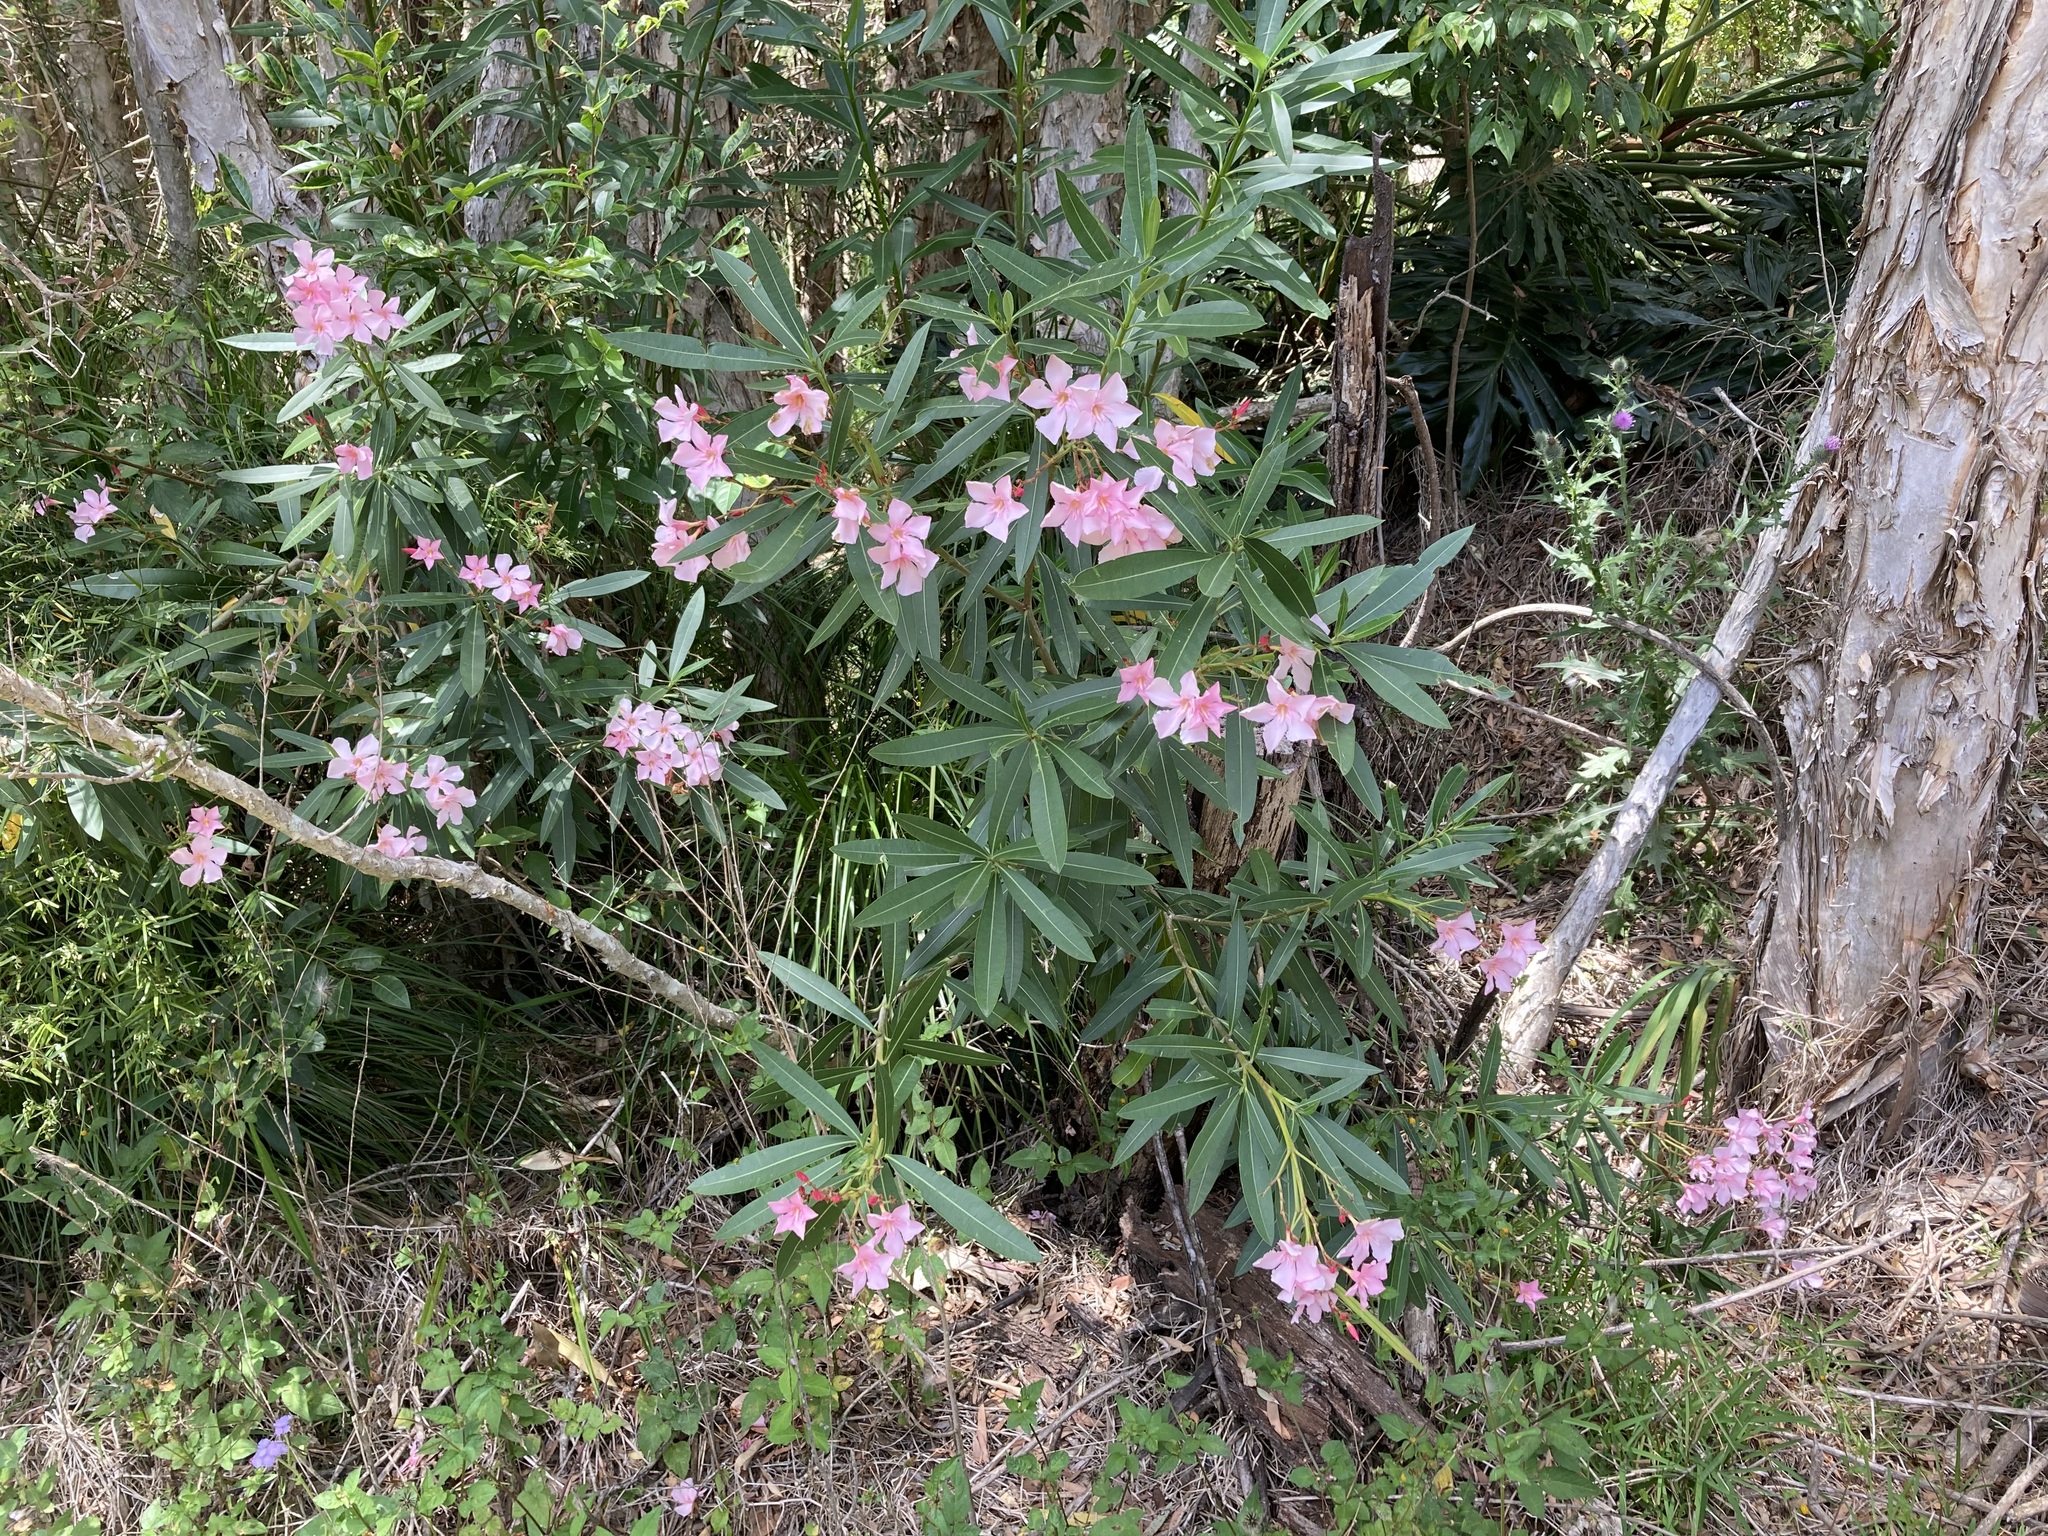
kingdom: Plantae
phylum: Tracheophyta
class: Magnoliopsida
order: Gentianales
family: Apocynaceae
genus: Nerium
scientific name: Nerium oleander
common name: Oleander
